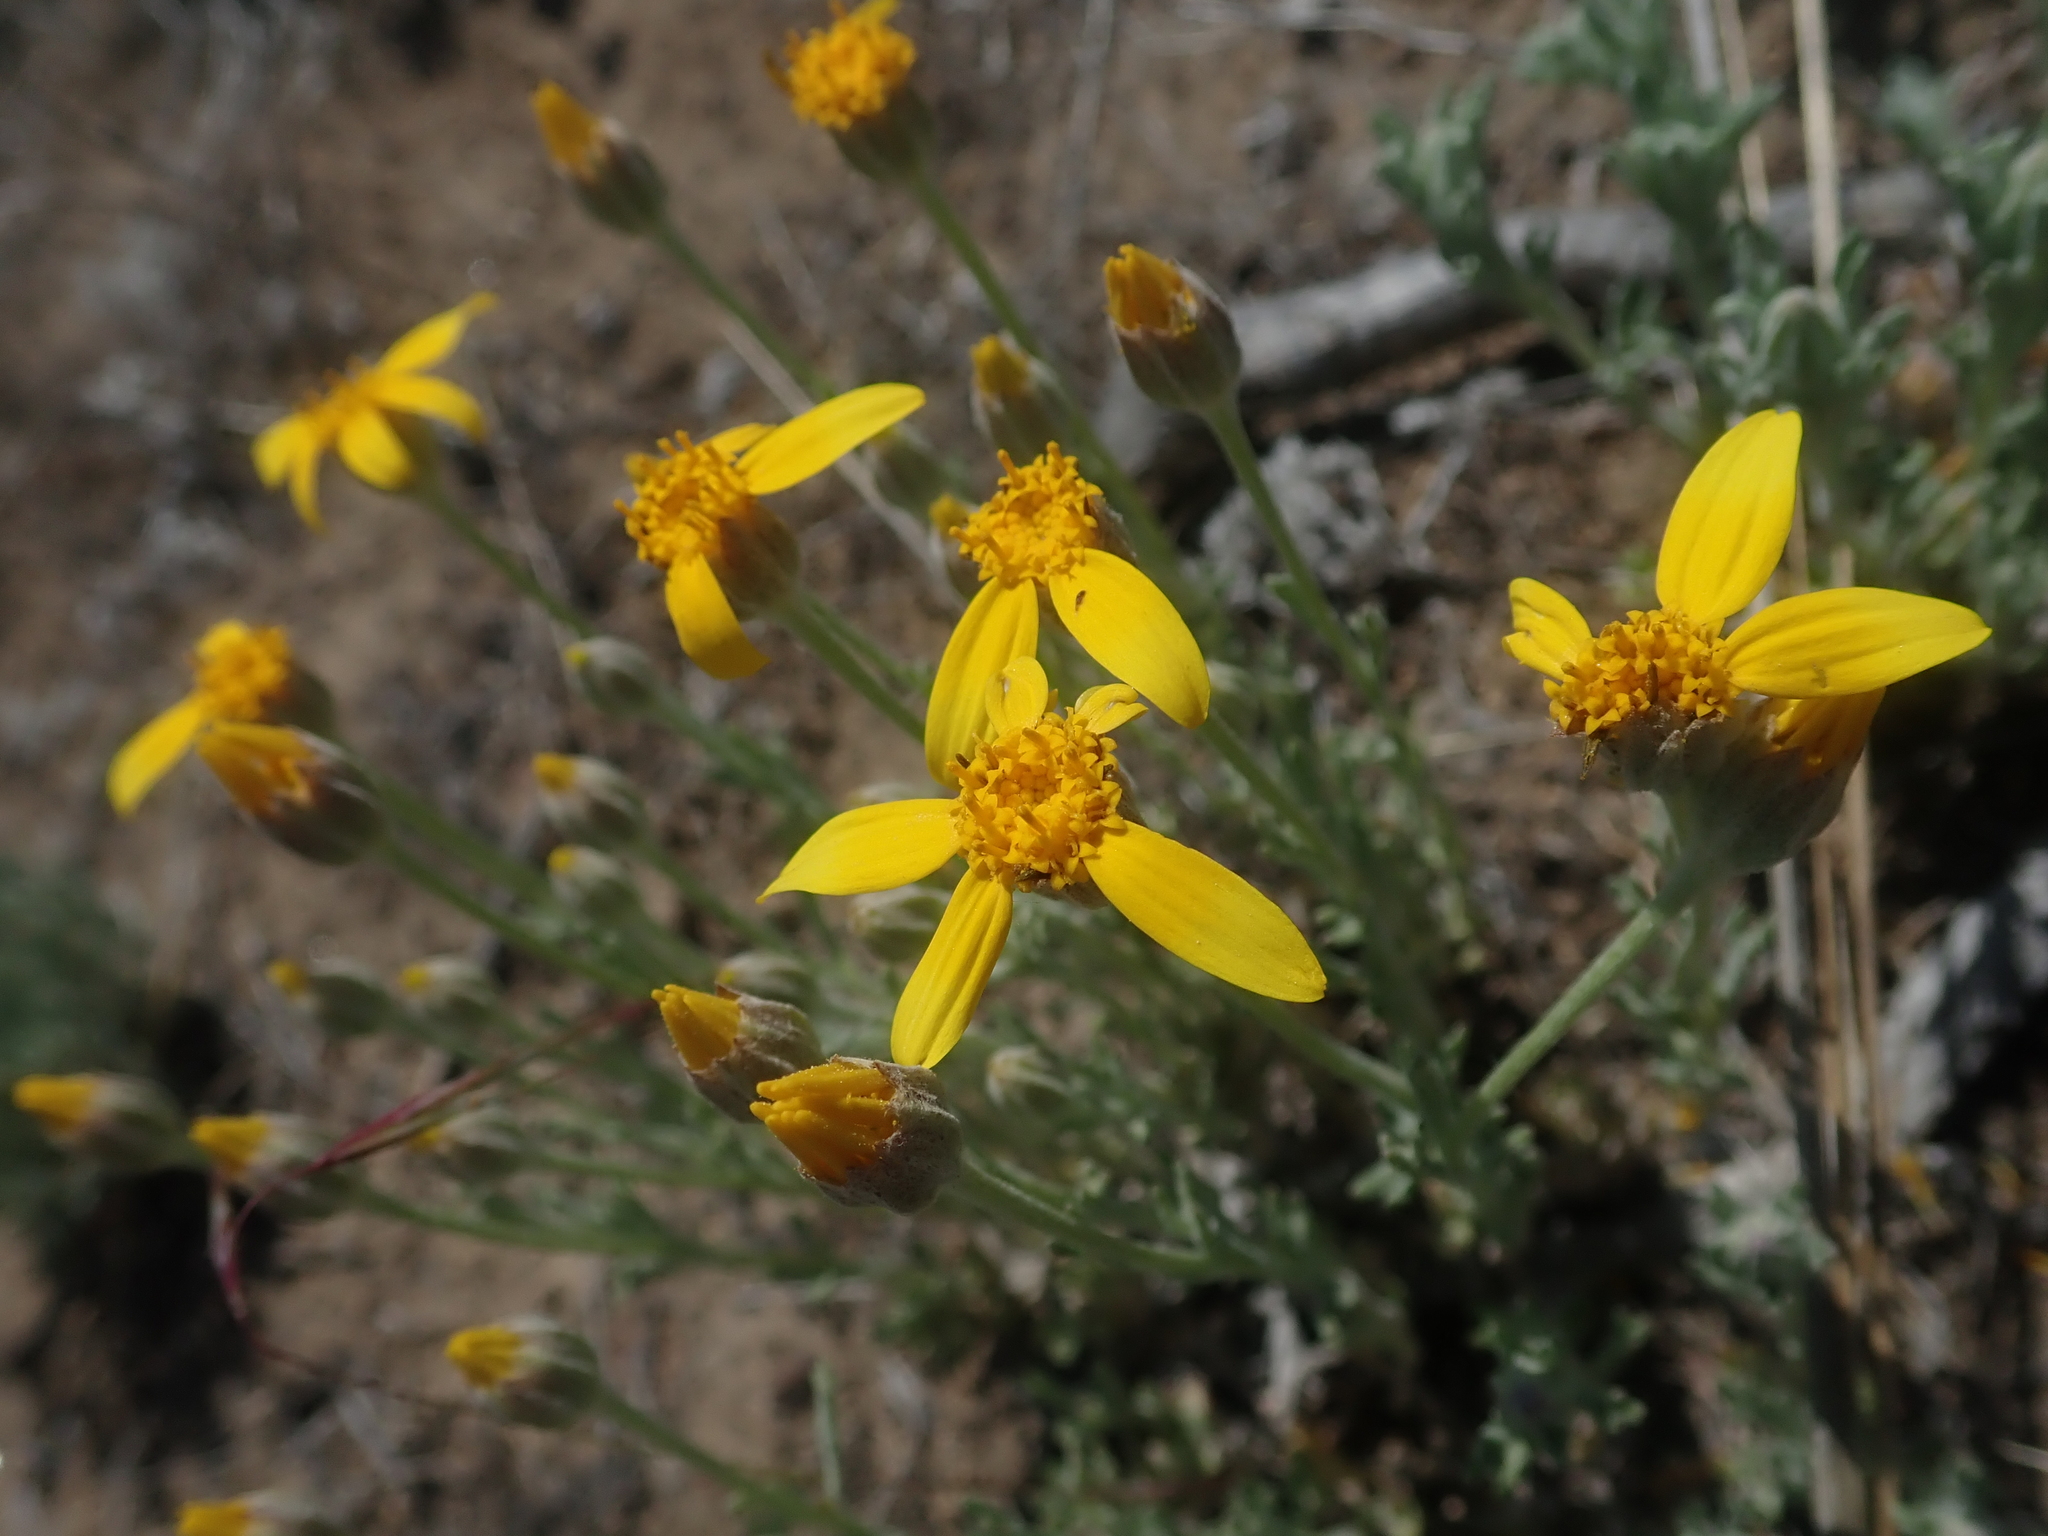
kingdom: Plantae
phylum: Tracheophyta
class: Magnoliopsida
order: Asterales
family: Asteraceae
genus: Eriophyllum
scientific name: Eriophyllum lanatum
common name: Common woolly-sunflower
